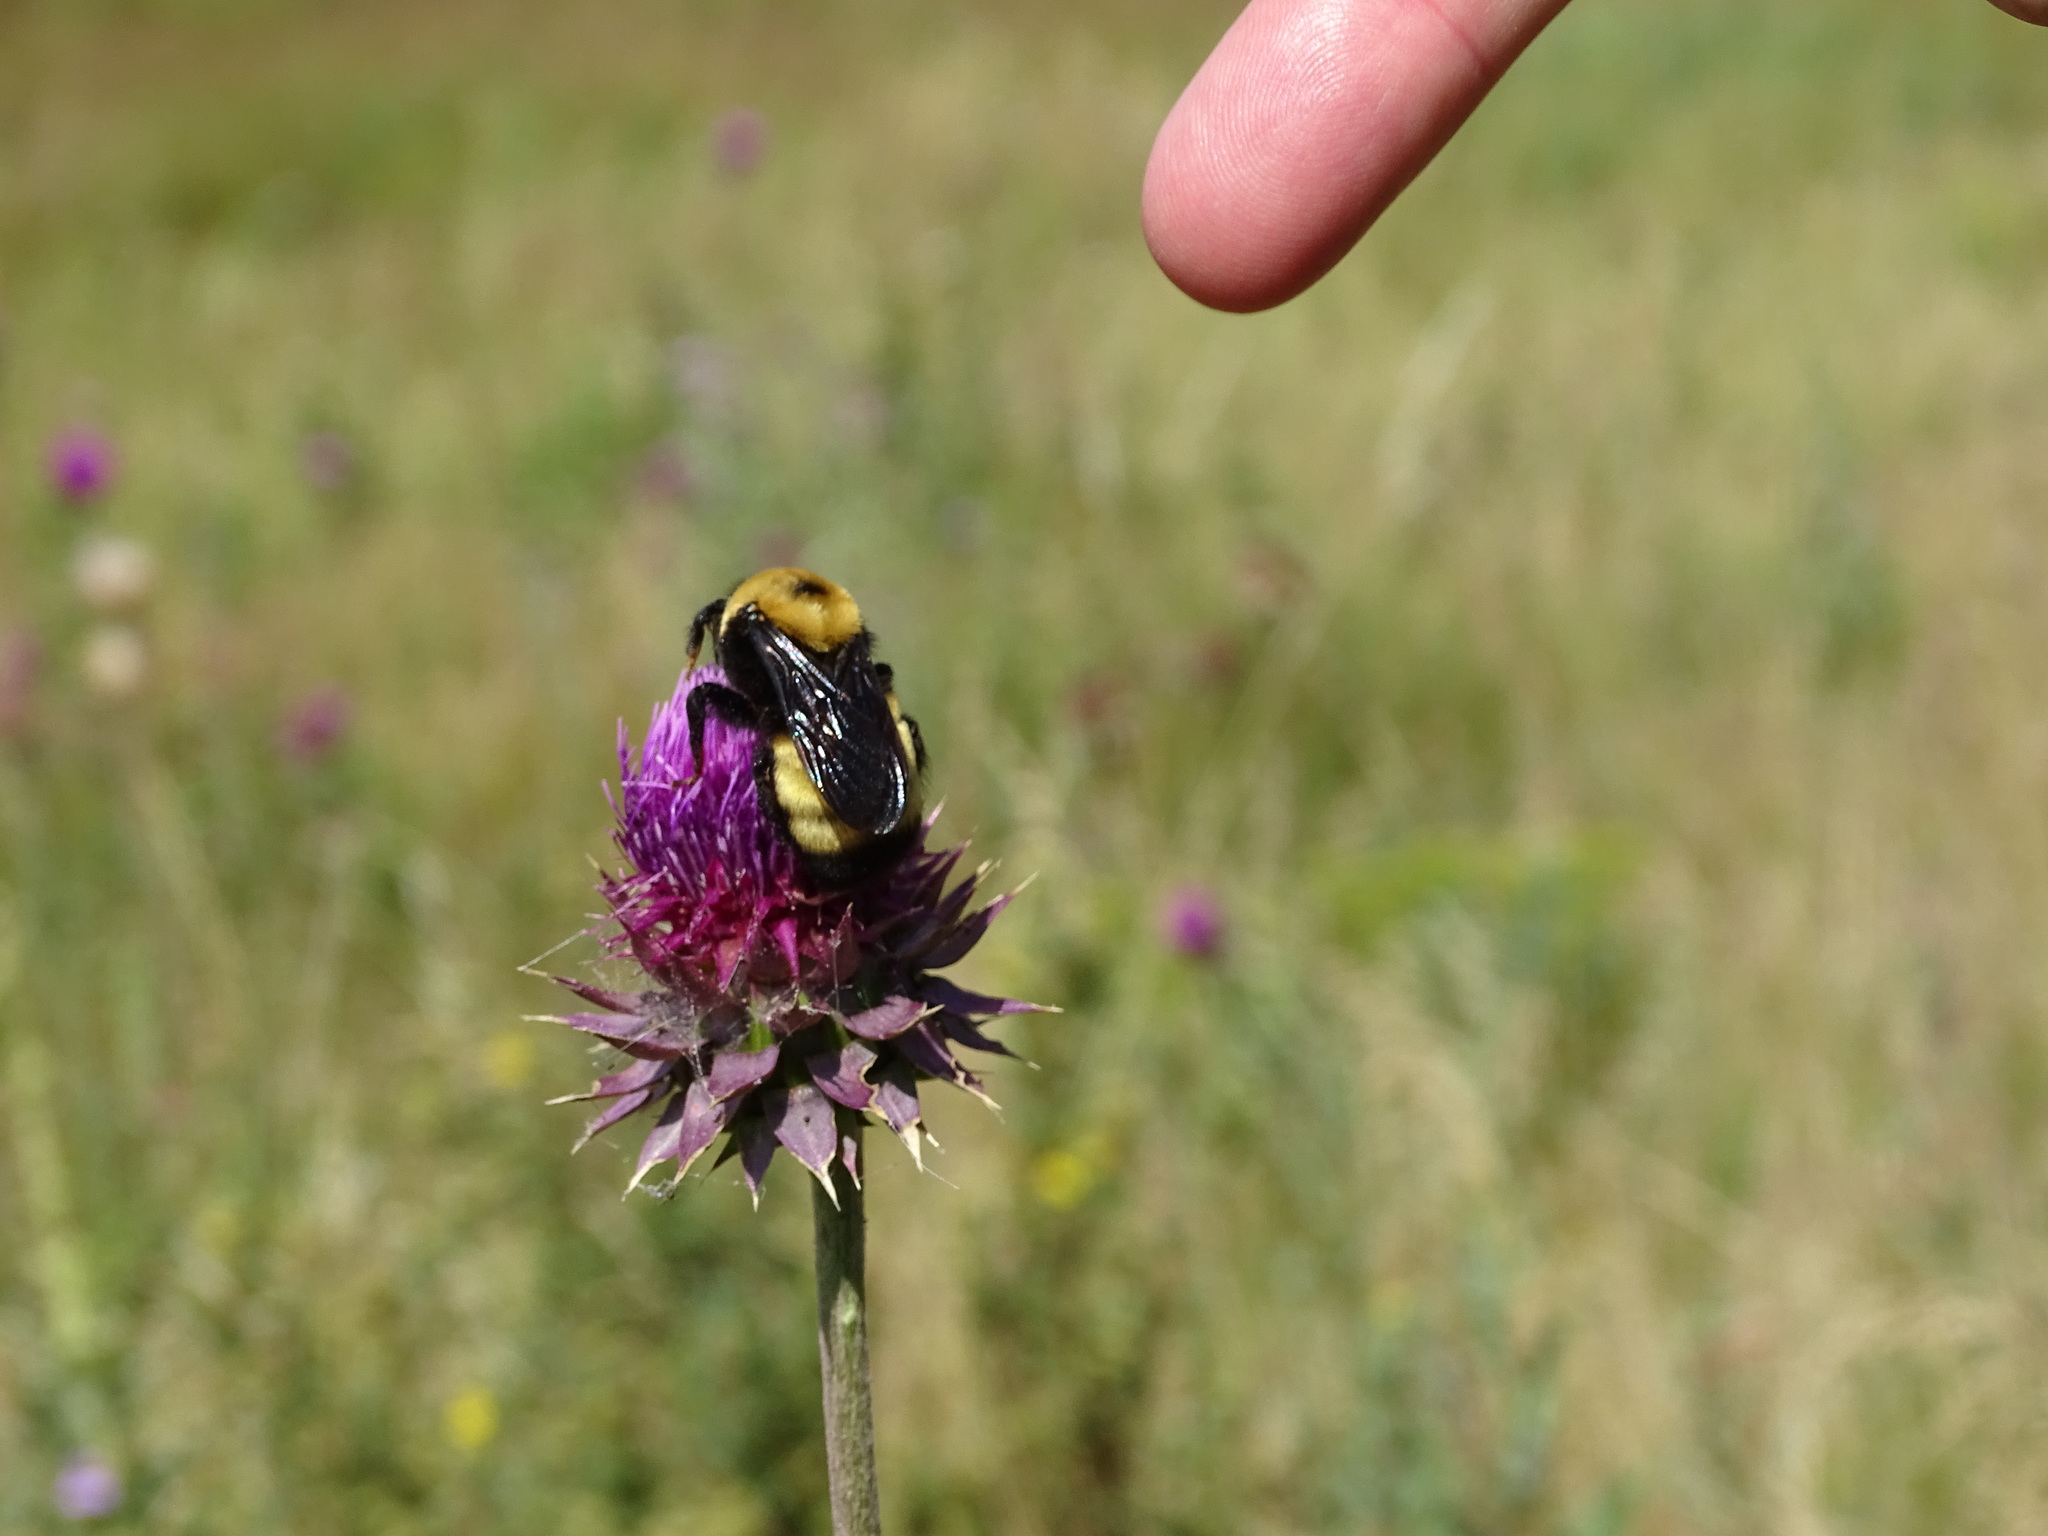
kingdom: Animalia
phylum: Arthropoda
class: Insecta
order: Hymenoptera
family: Apidae
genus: Bombus
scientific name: Bombus nevadensis
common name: Nevada bumble bee
